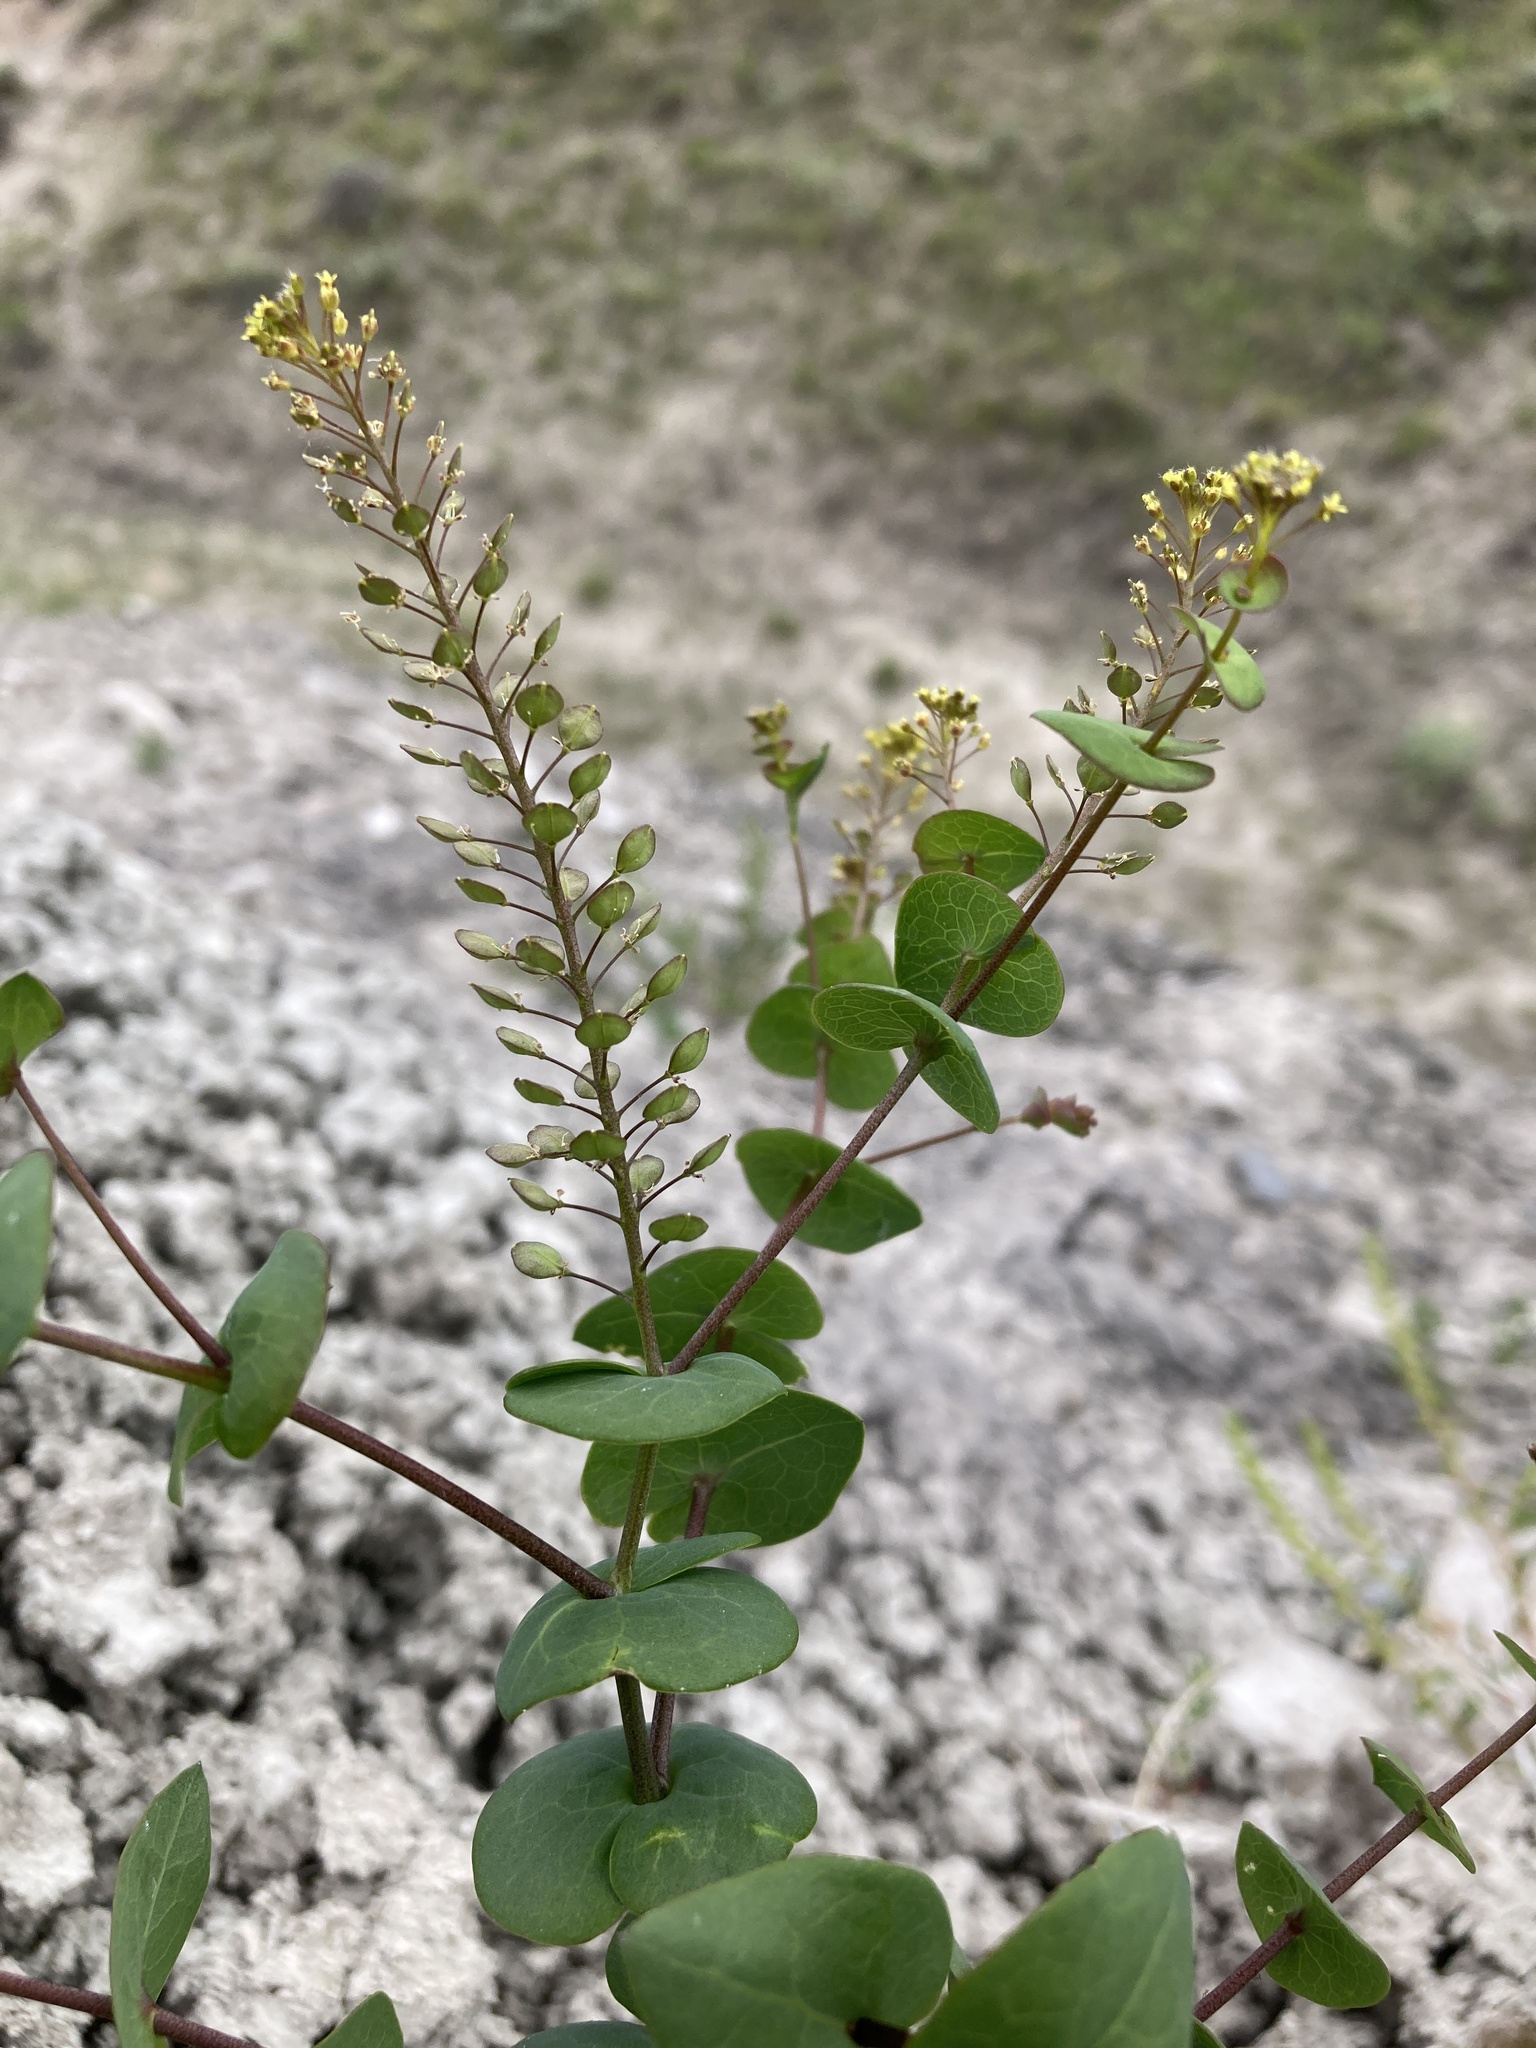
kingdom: Plantae
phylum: Tracheophyta
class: Magnoliopsida
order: Brassicales
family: Brassicaceae
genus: Lepidium
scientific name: Lepidium perfoliatum
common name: Perfoliate pepperwort
